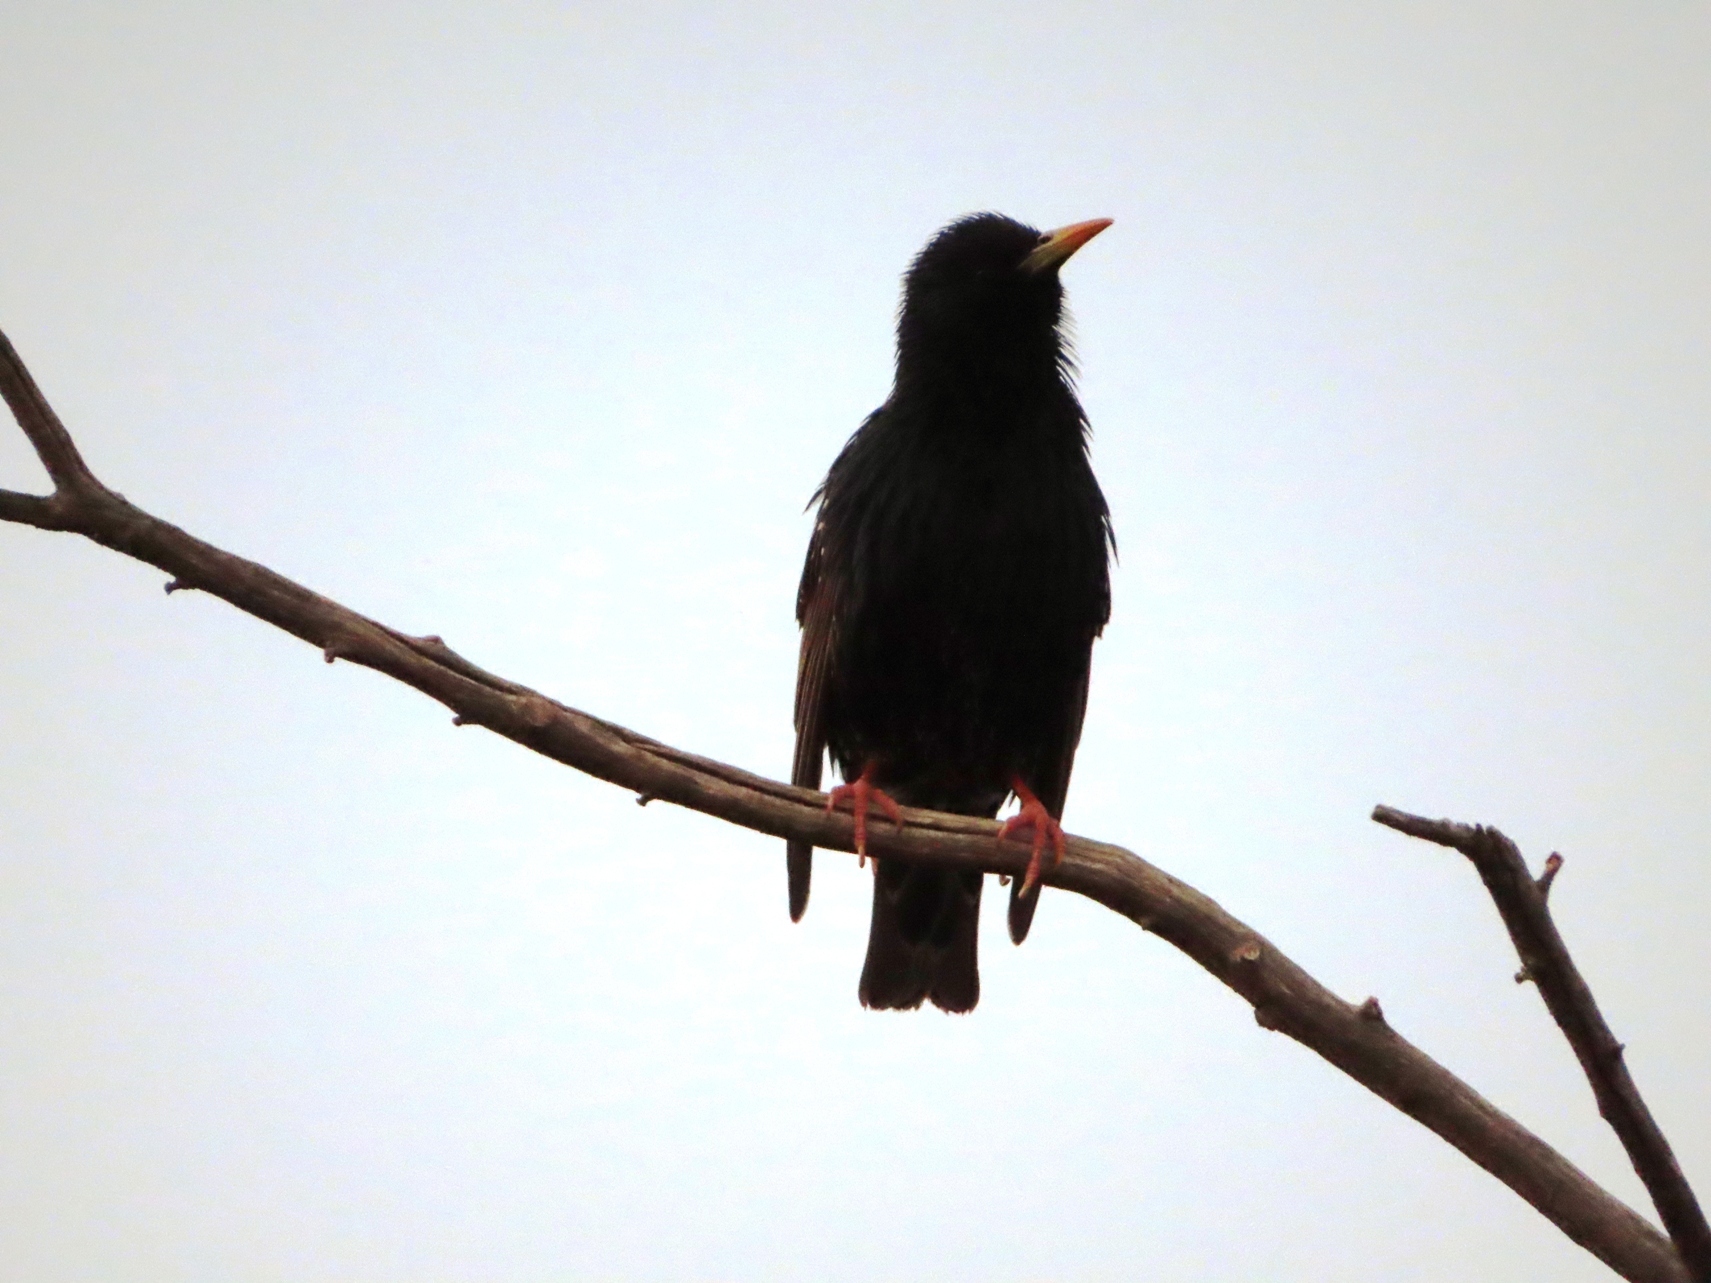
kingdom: Animalia
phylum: Chordata
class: Aves
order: Passeriformes
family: Sturnidae
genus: Sturnus
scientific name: Sturnus vulgaris
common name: Common starling
